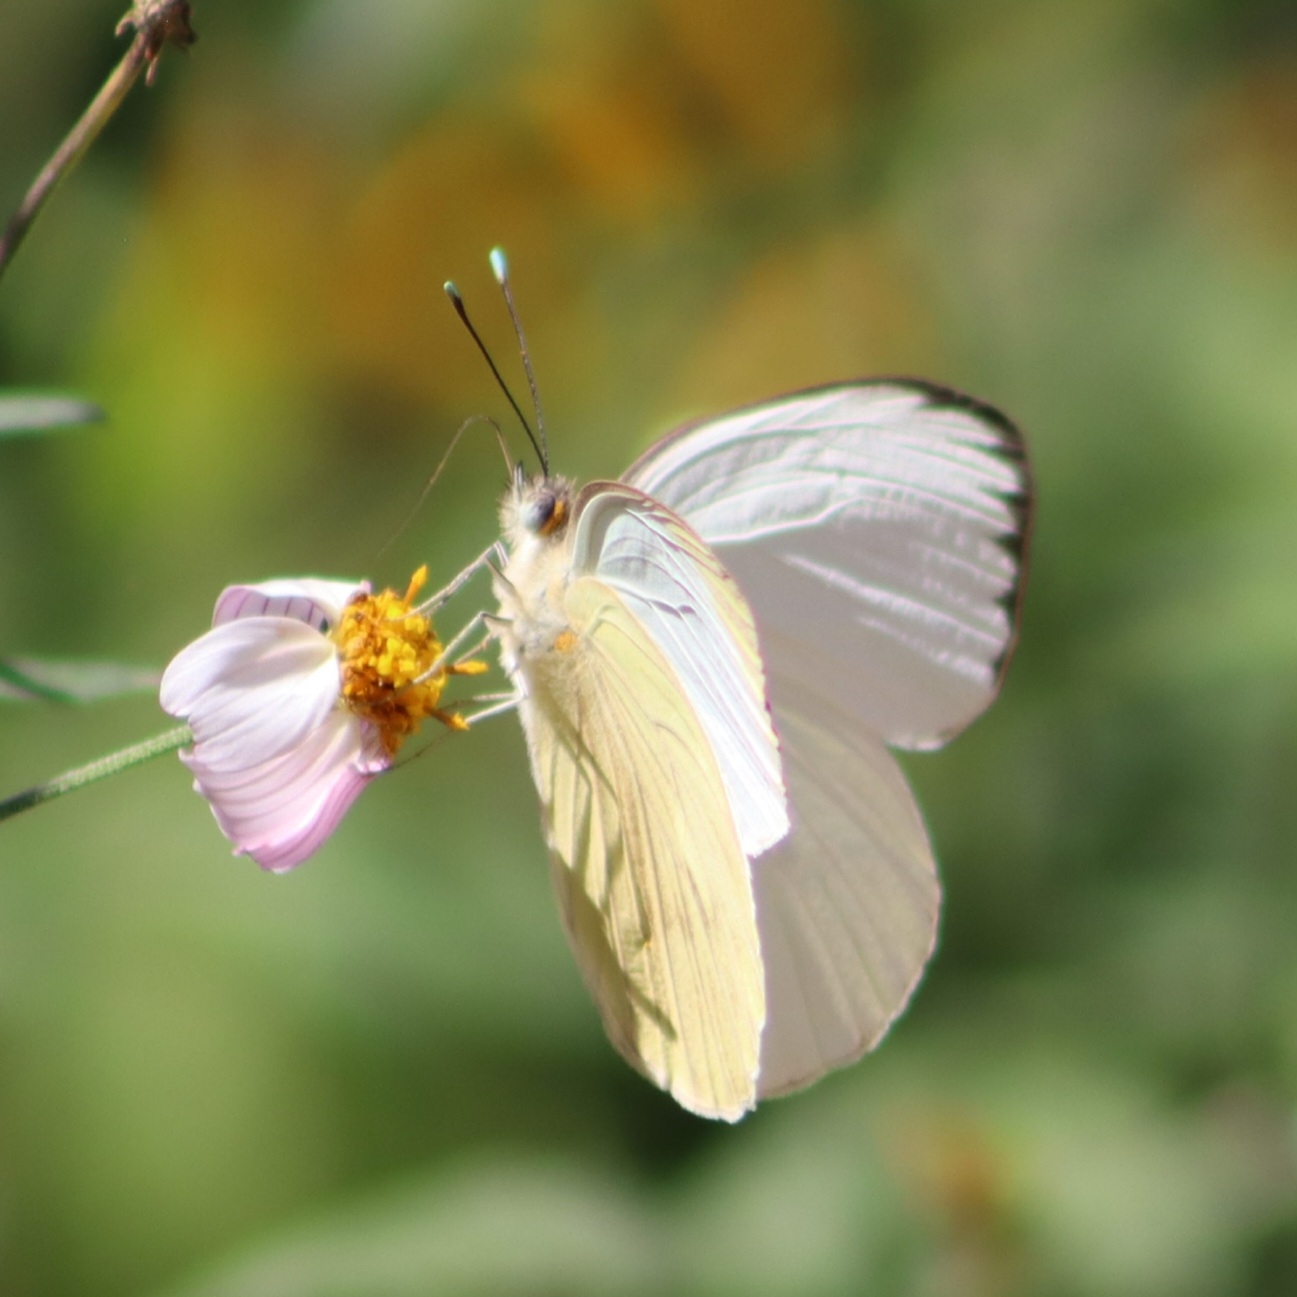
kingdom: Animalia
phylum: Arthropoda
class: Insecta
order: Lepidoptera
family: Pieridae
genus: Ascia
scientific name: Ascia monuste
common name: Great southern white
